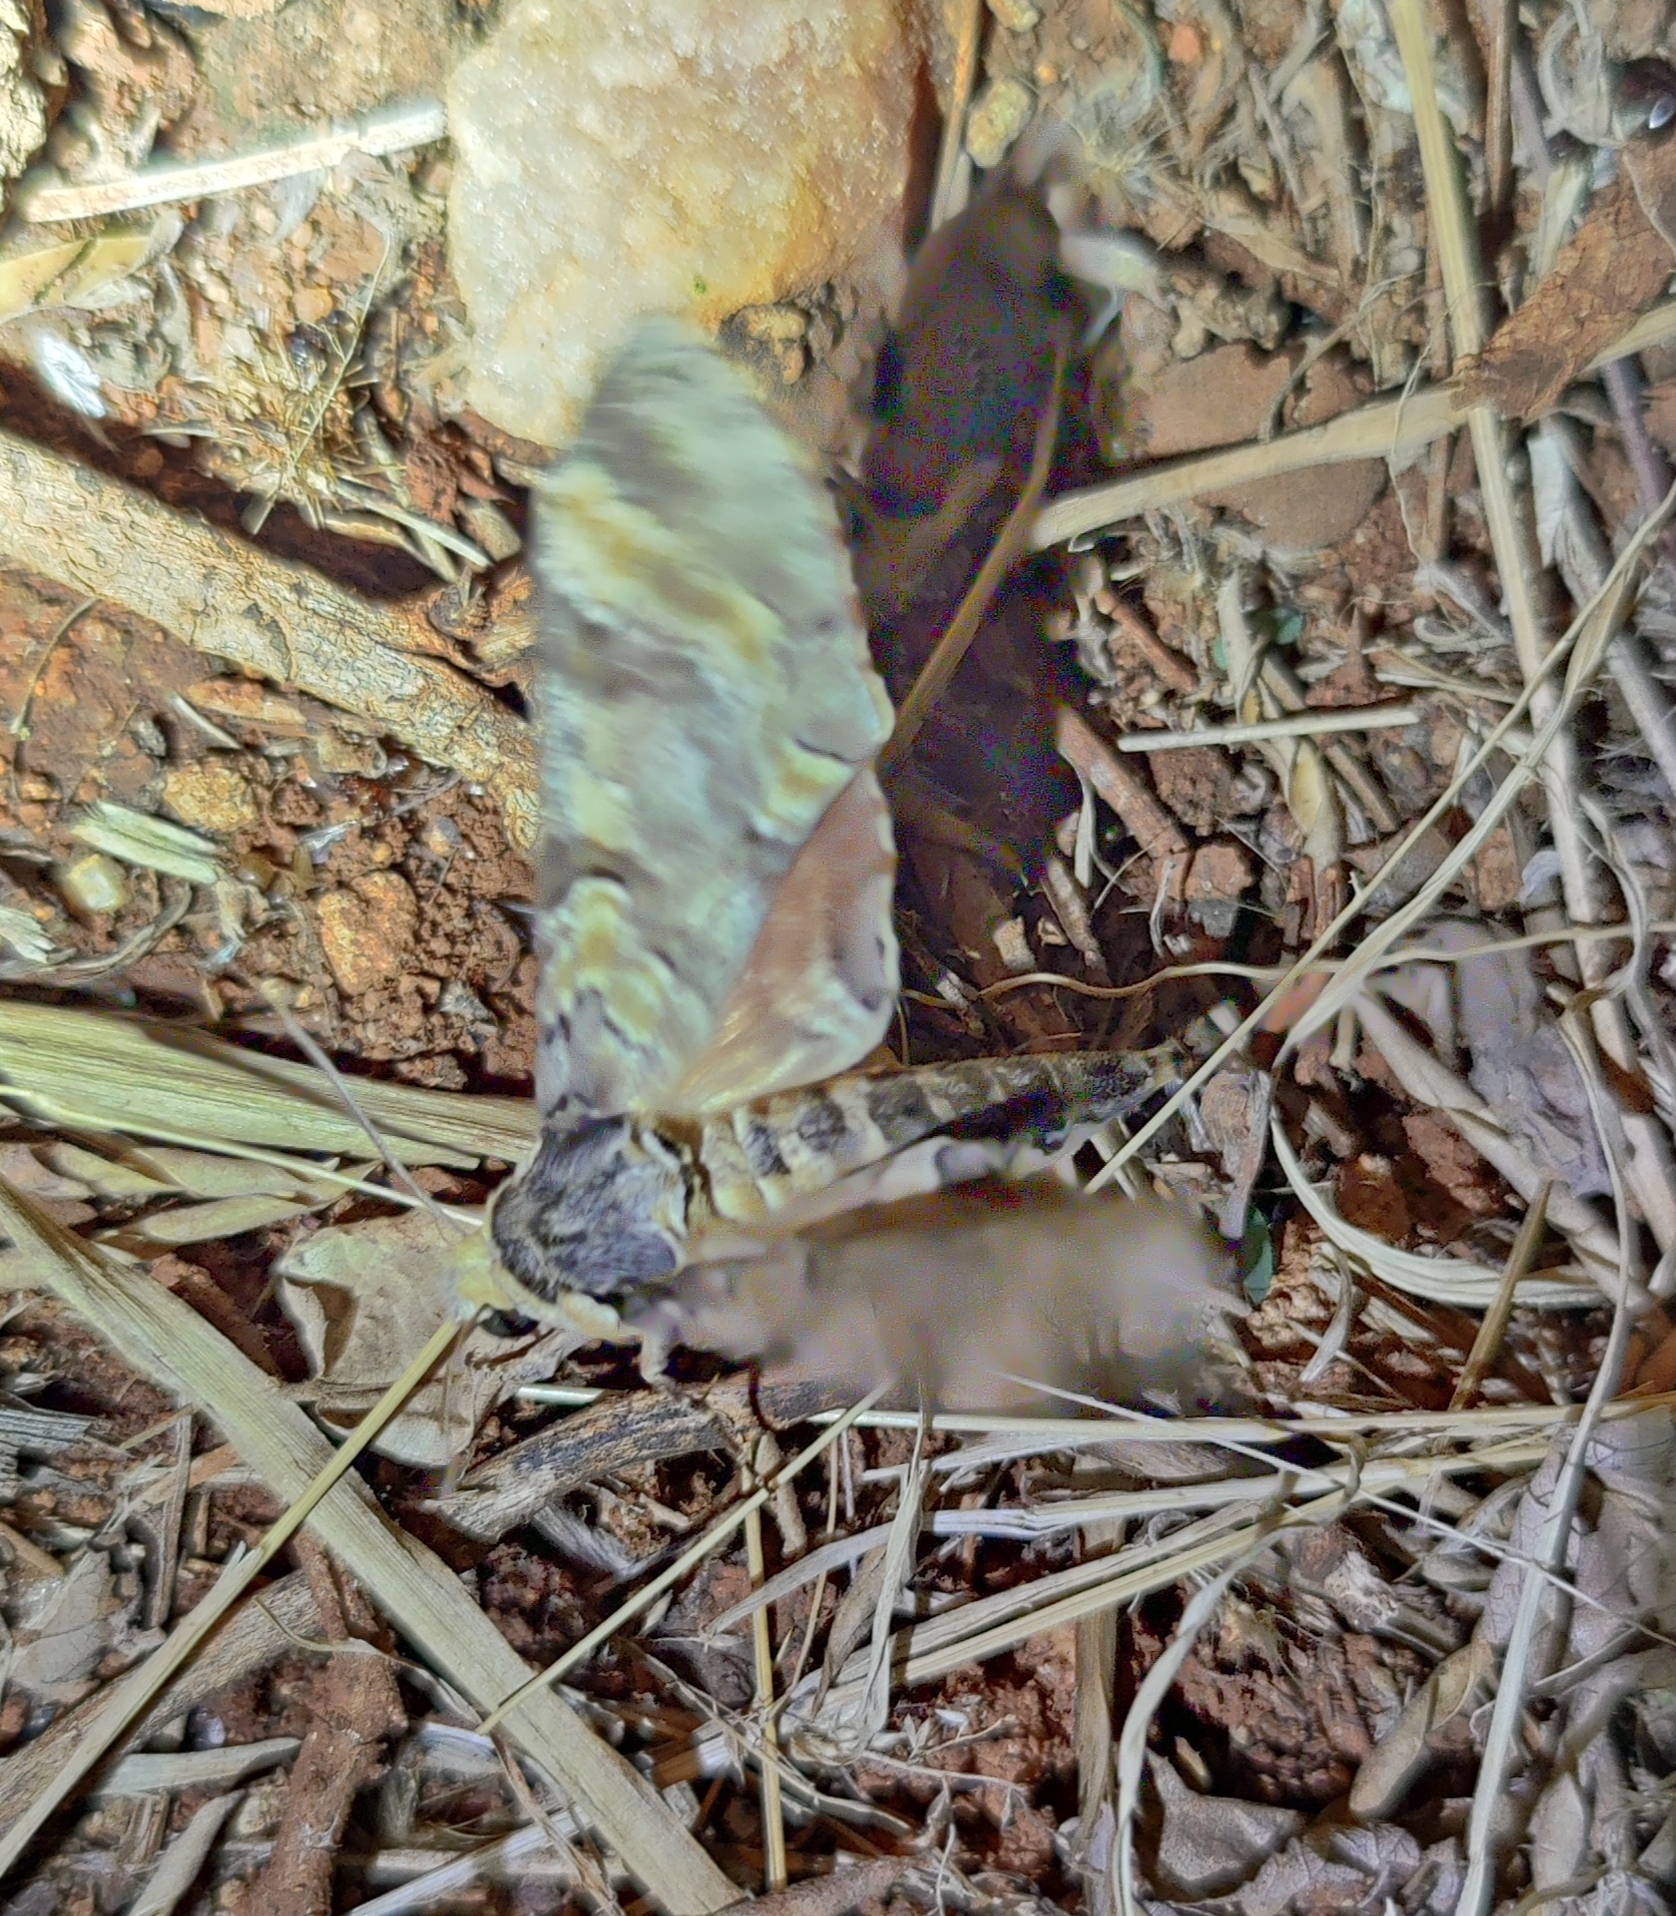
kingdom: Animalia
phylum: Arthropoda
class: Insecta
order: Lepidoptera
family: Sphingidae
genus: Callosphingia
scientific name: Callosphingia circe
